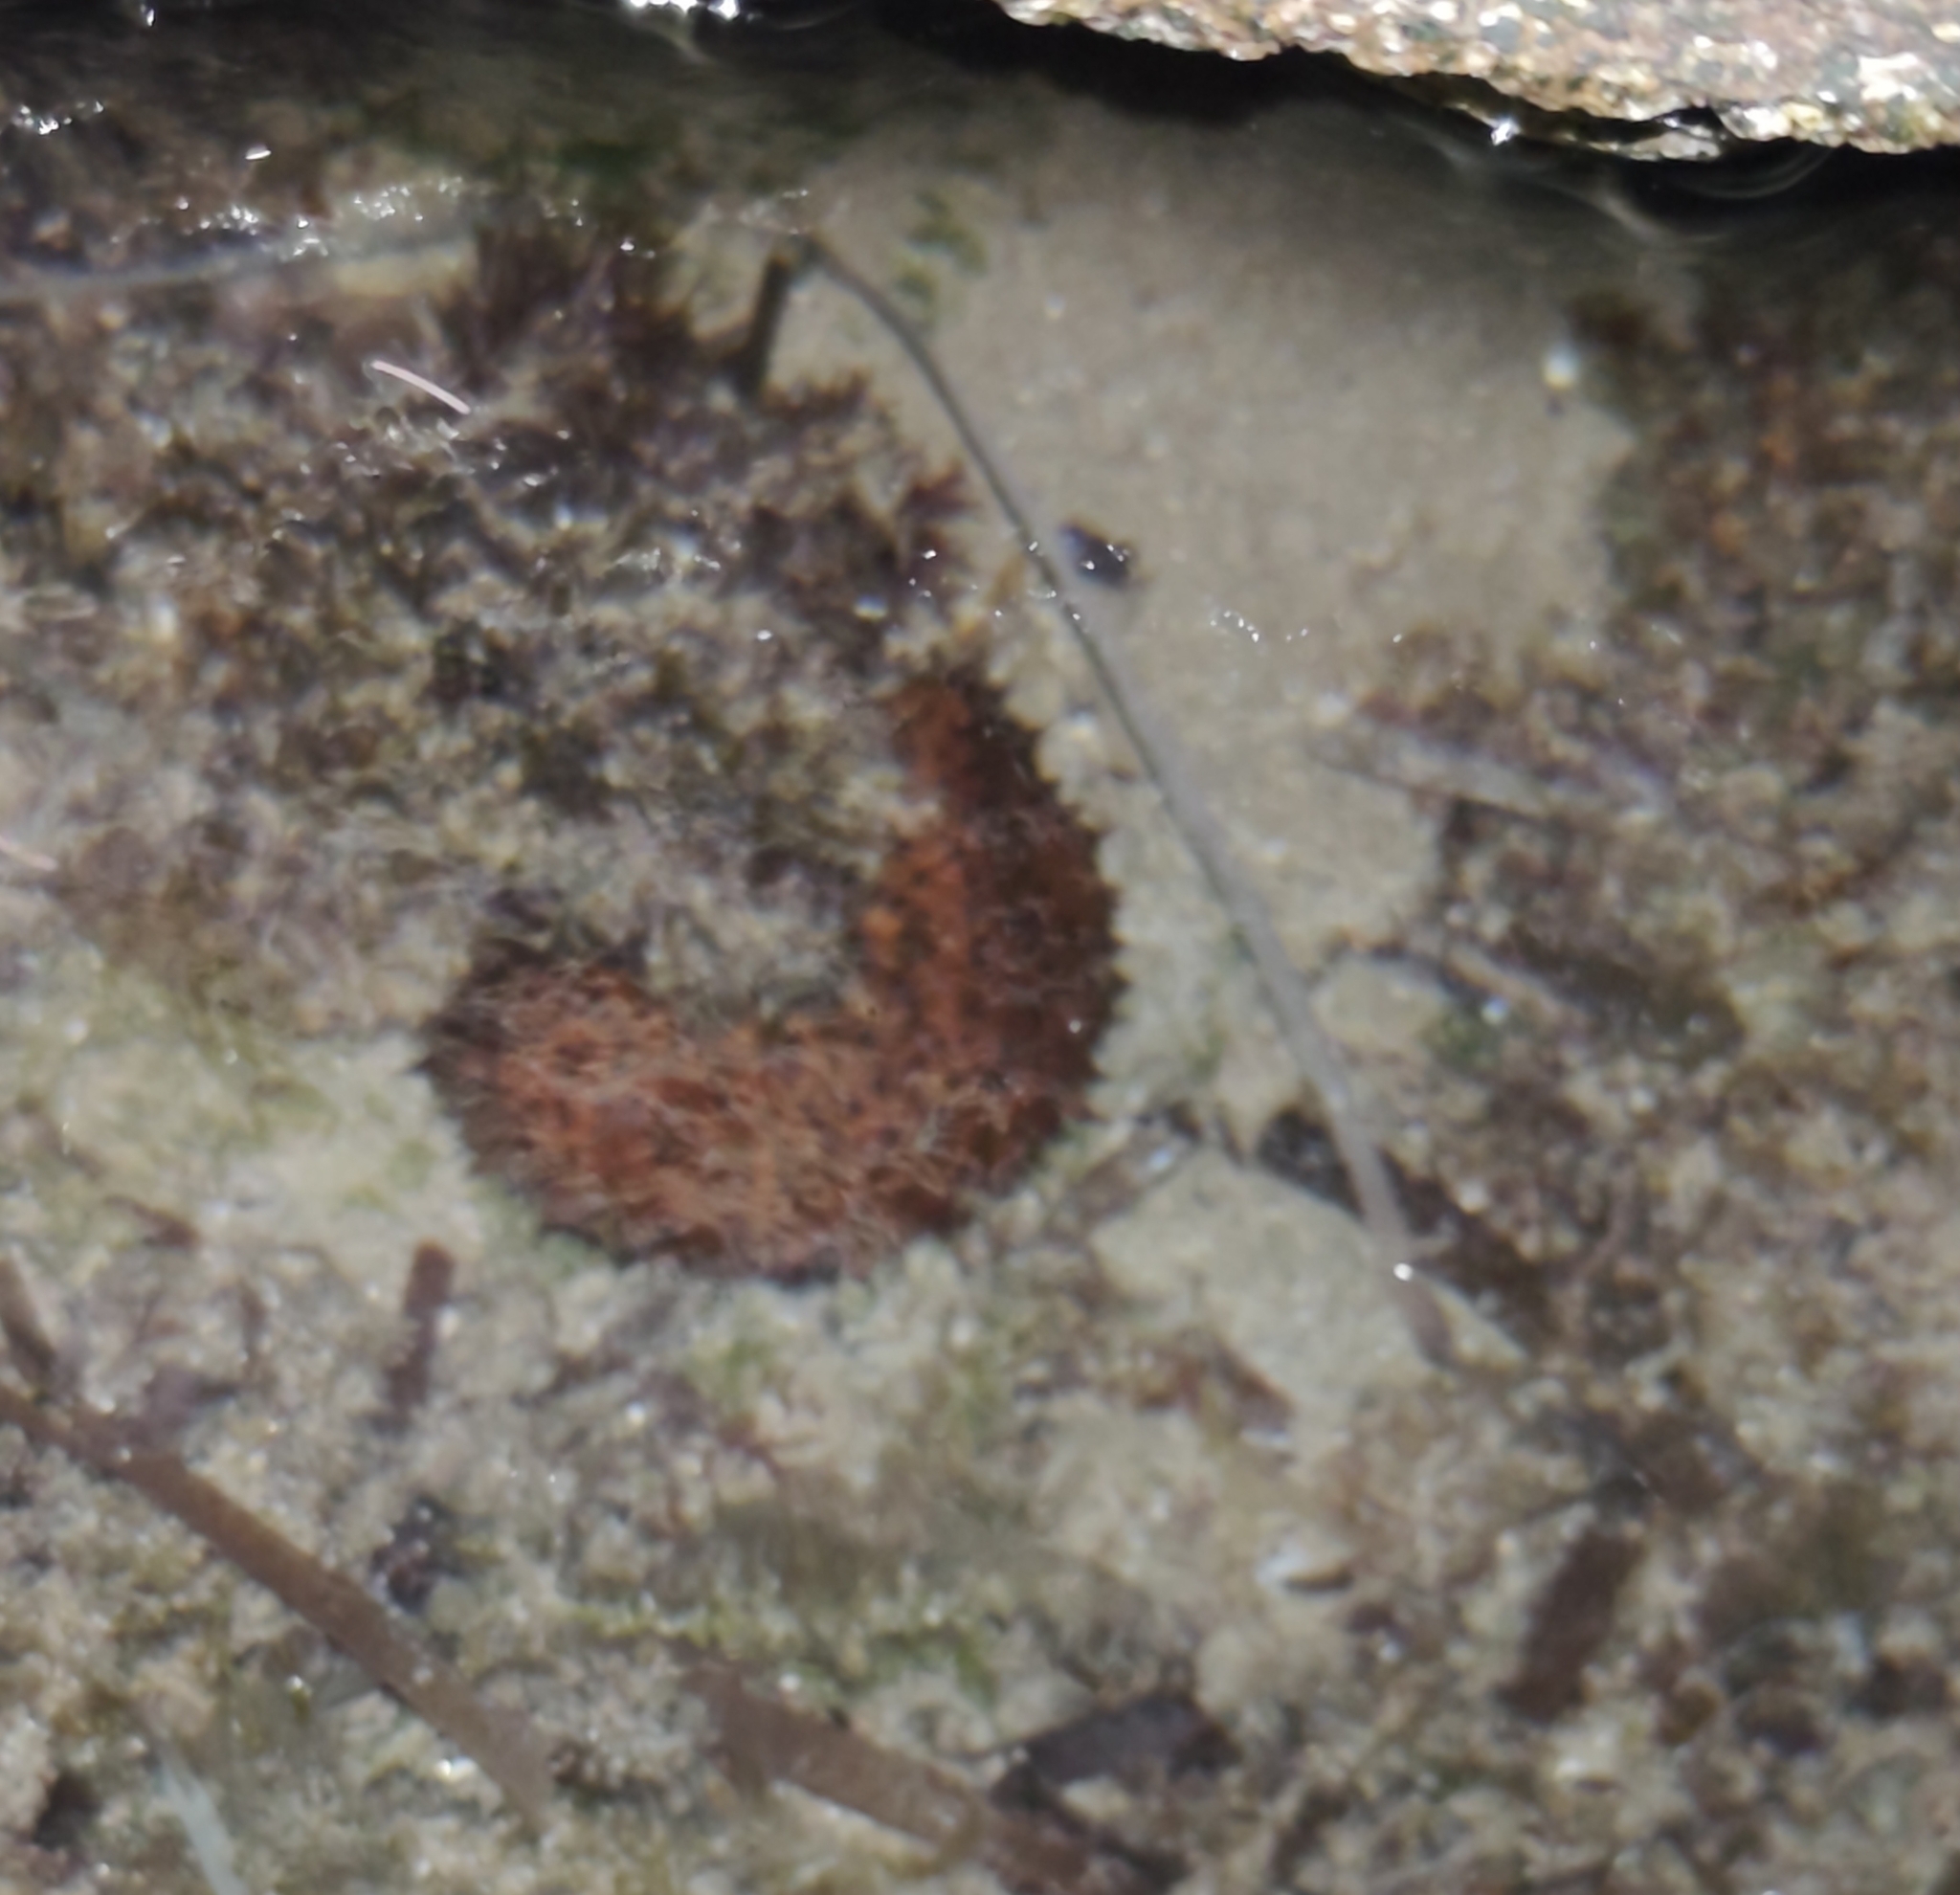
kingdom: Animalia
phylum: Echinodermata
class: Holothuroidea
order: Holothuriida
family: Holothuriidae
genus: Holothuria
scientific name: Holothuria
